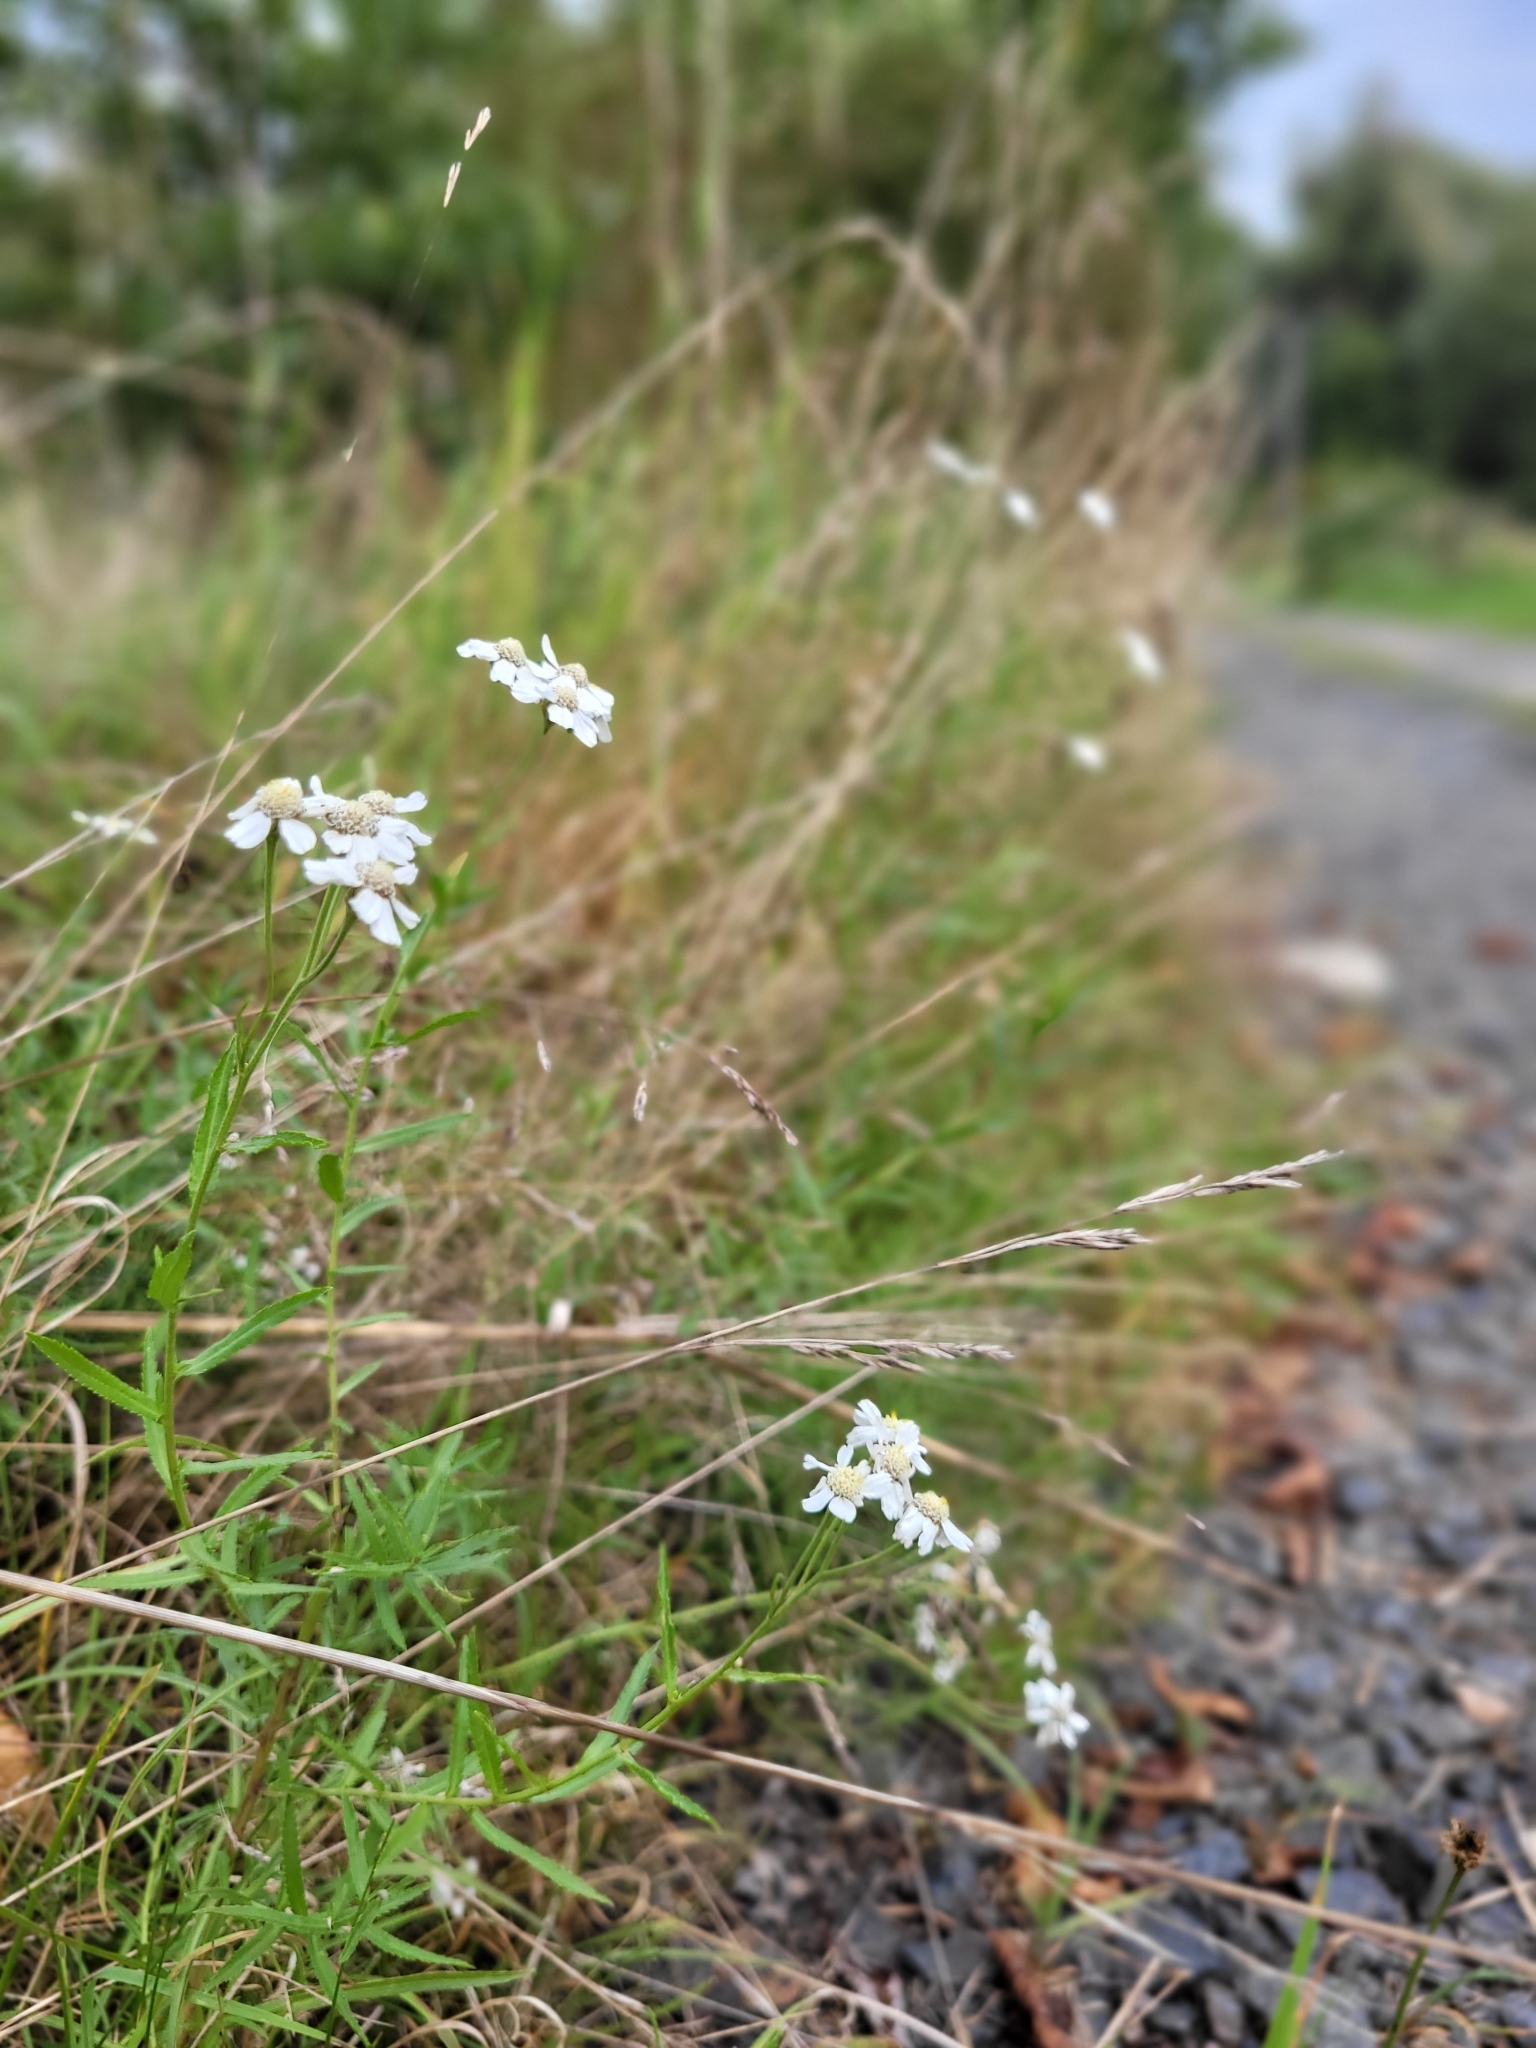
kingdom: Plantae
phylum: Tracheophyta
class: Magnoliopsida
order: Asterales
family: Asteraceae
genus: Achillea
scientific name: Achillea ptarmica
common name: Sneezeweed
